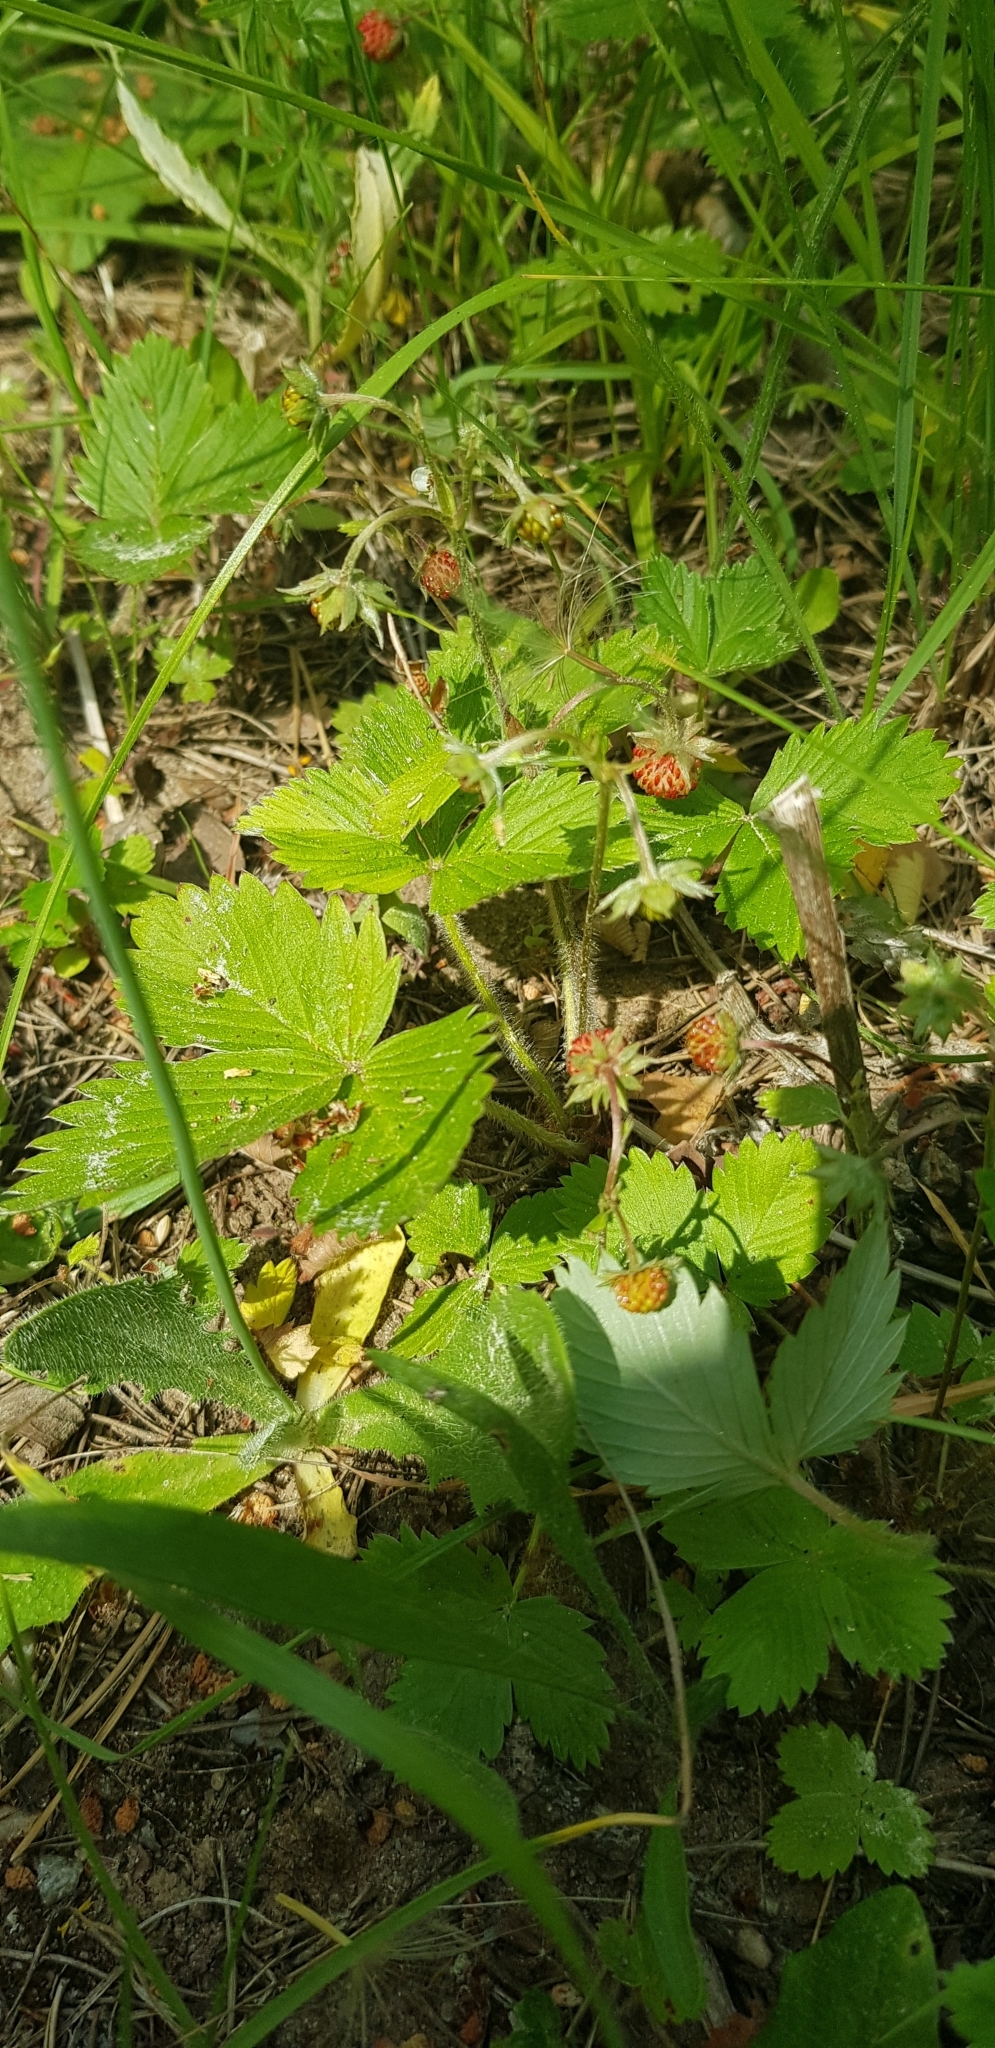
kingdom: Plantae
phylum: Tracheophyta
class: Magnoliopsida
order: Rosales
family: Rosaceae
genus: Fragaria
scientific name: Fragaria vesca
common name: Wild strawberry
